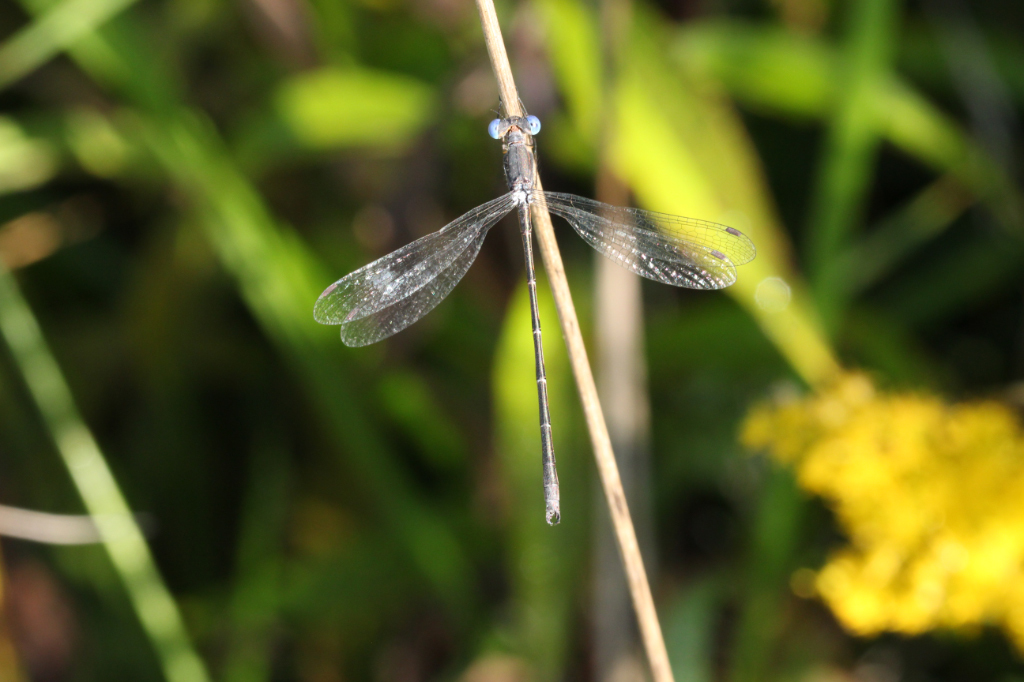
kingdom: Animalia
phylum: Arthropoda
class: Insecta
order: Odonata
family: Lestidae
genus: Lestes
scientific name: Lestes congener
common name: Spotted spreadwing
